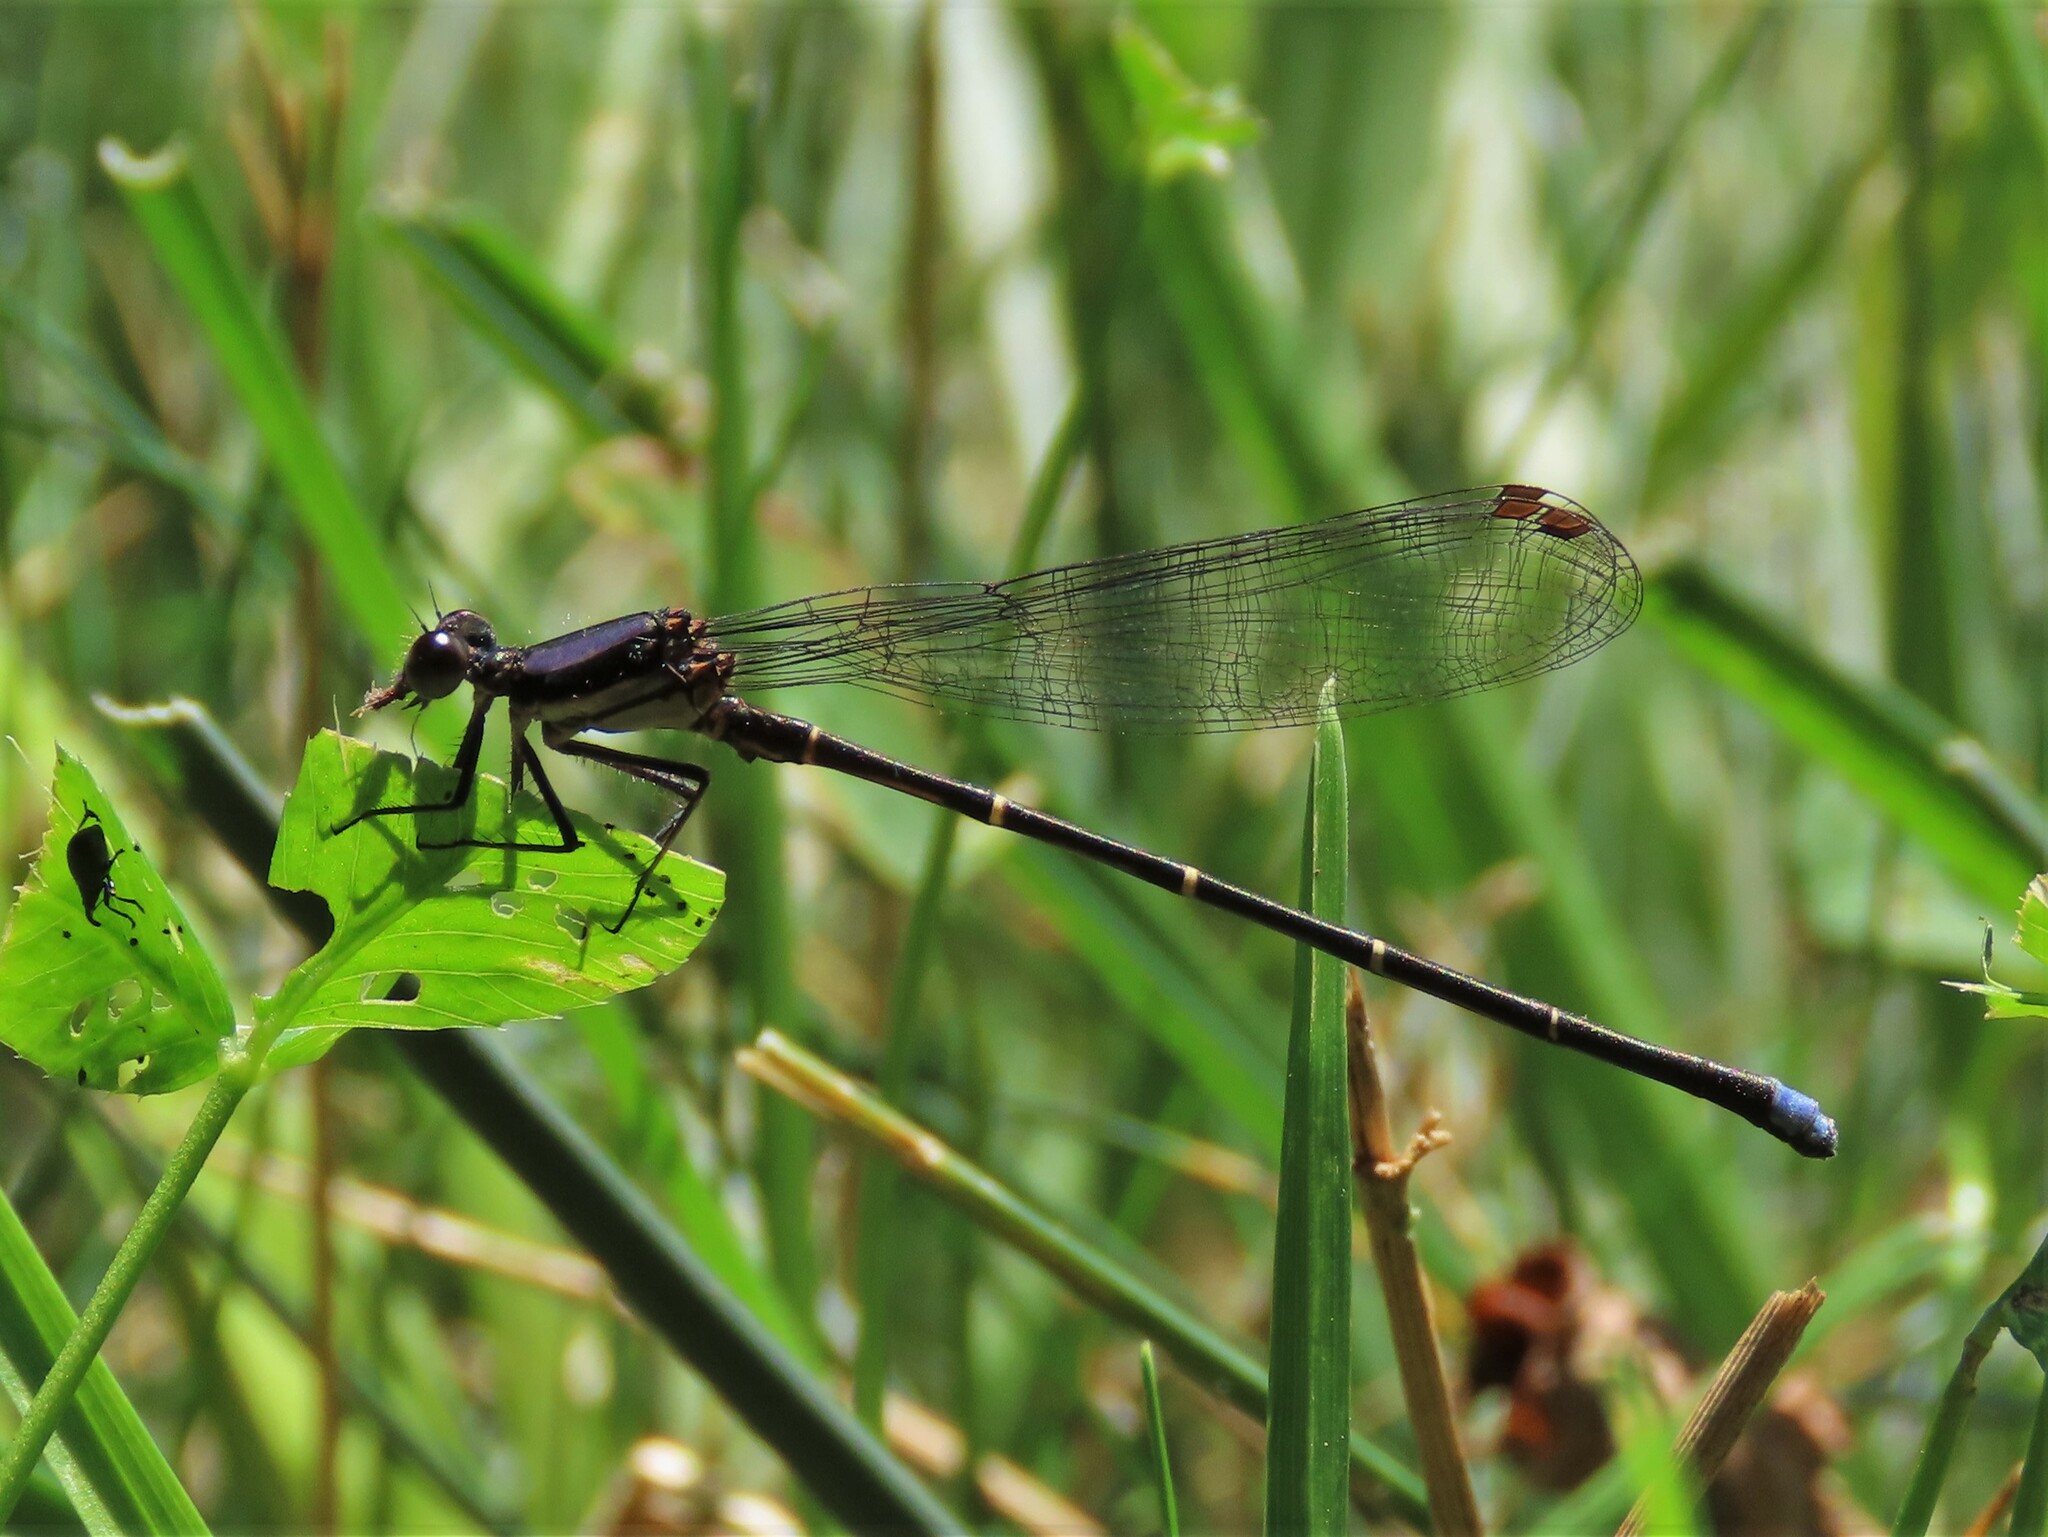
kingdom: Animalia
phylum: Arthropoda
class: Insecta
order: Odonata
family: Coenagrionidae
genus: Argia
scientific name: Argia tibialis
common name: Blue-tipped dancer
